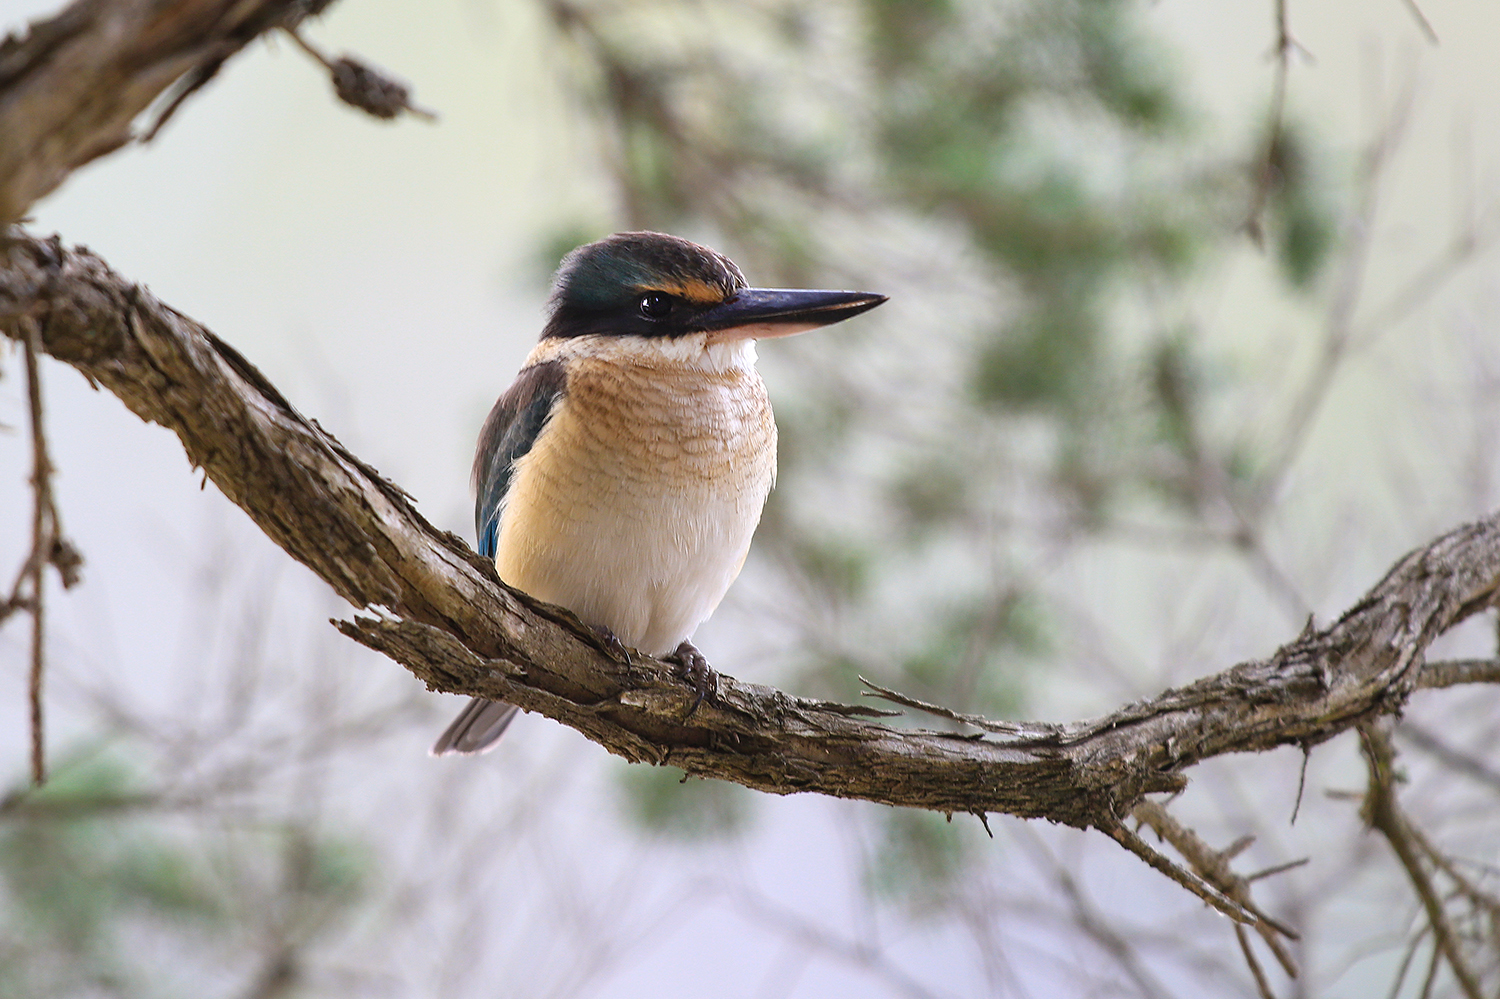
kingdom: Animalia
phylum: Chordata
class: Aves
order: Coraciiformes
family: Alcedinidae
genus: Todiramphus
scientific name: Todiramphus sanctus
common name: Sacred kingfisher
